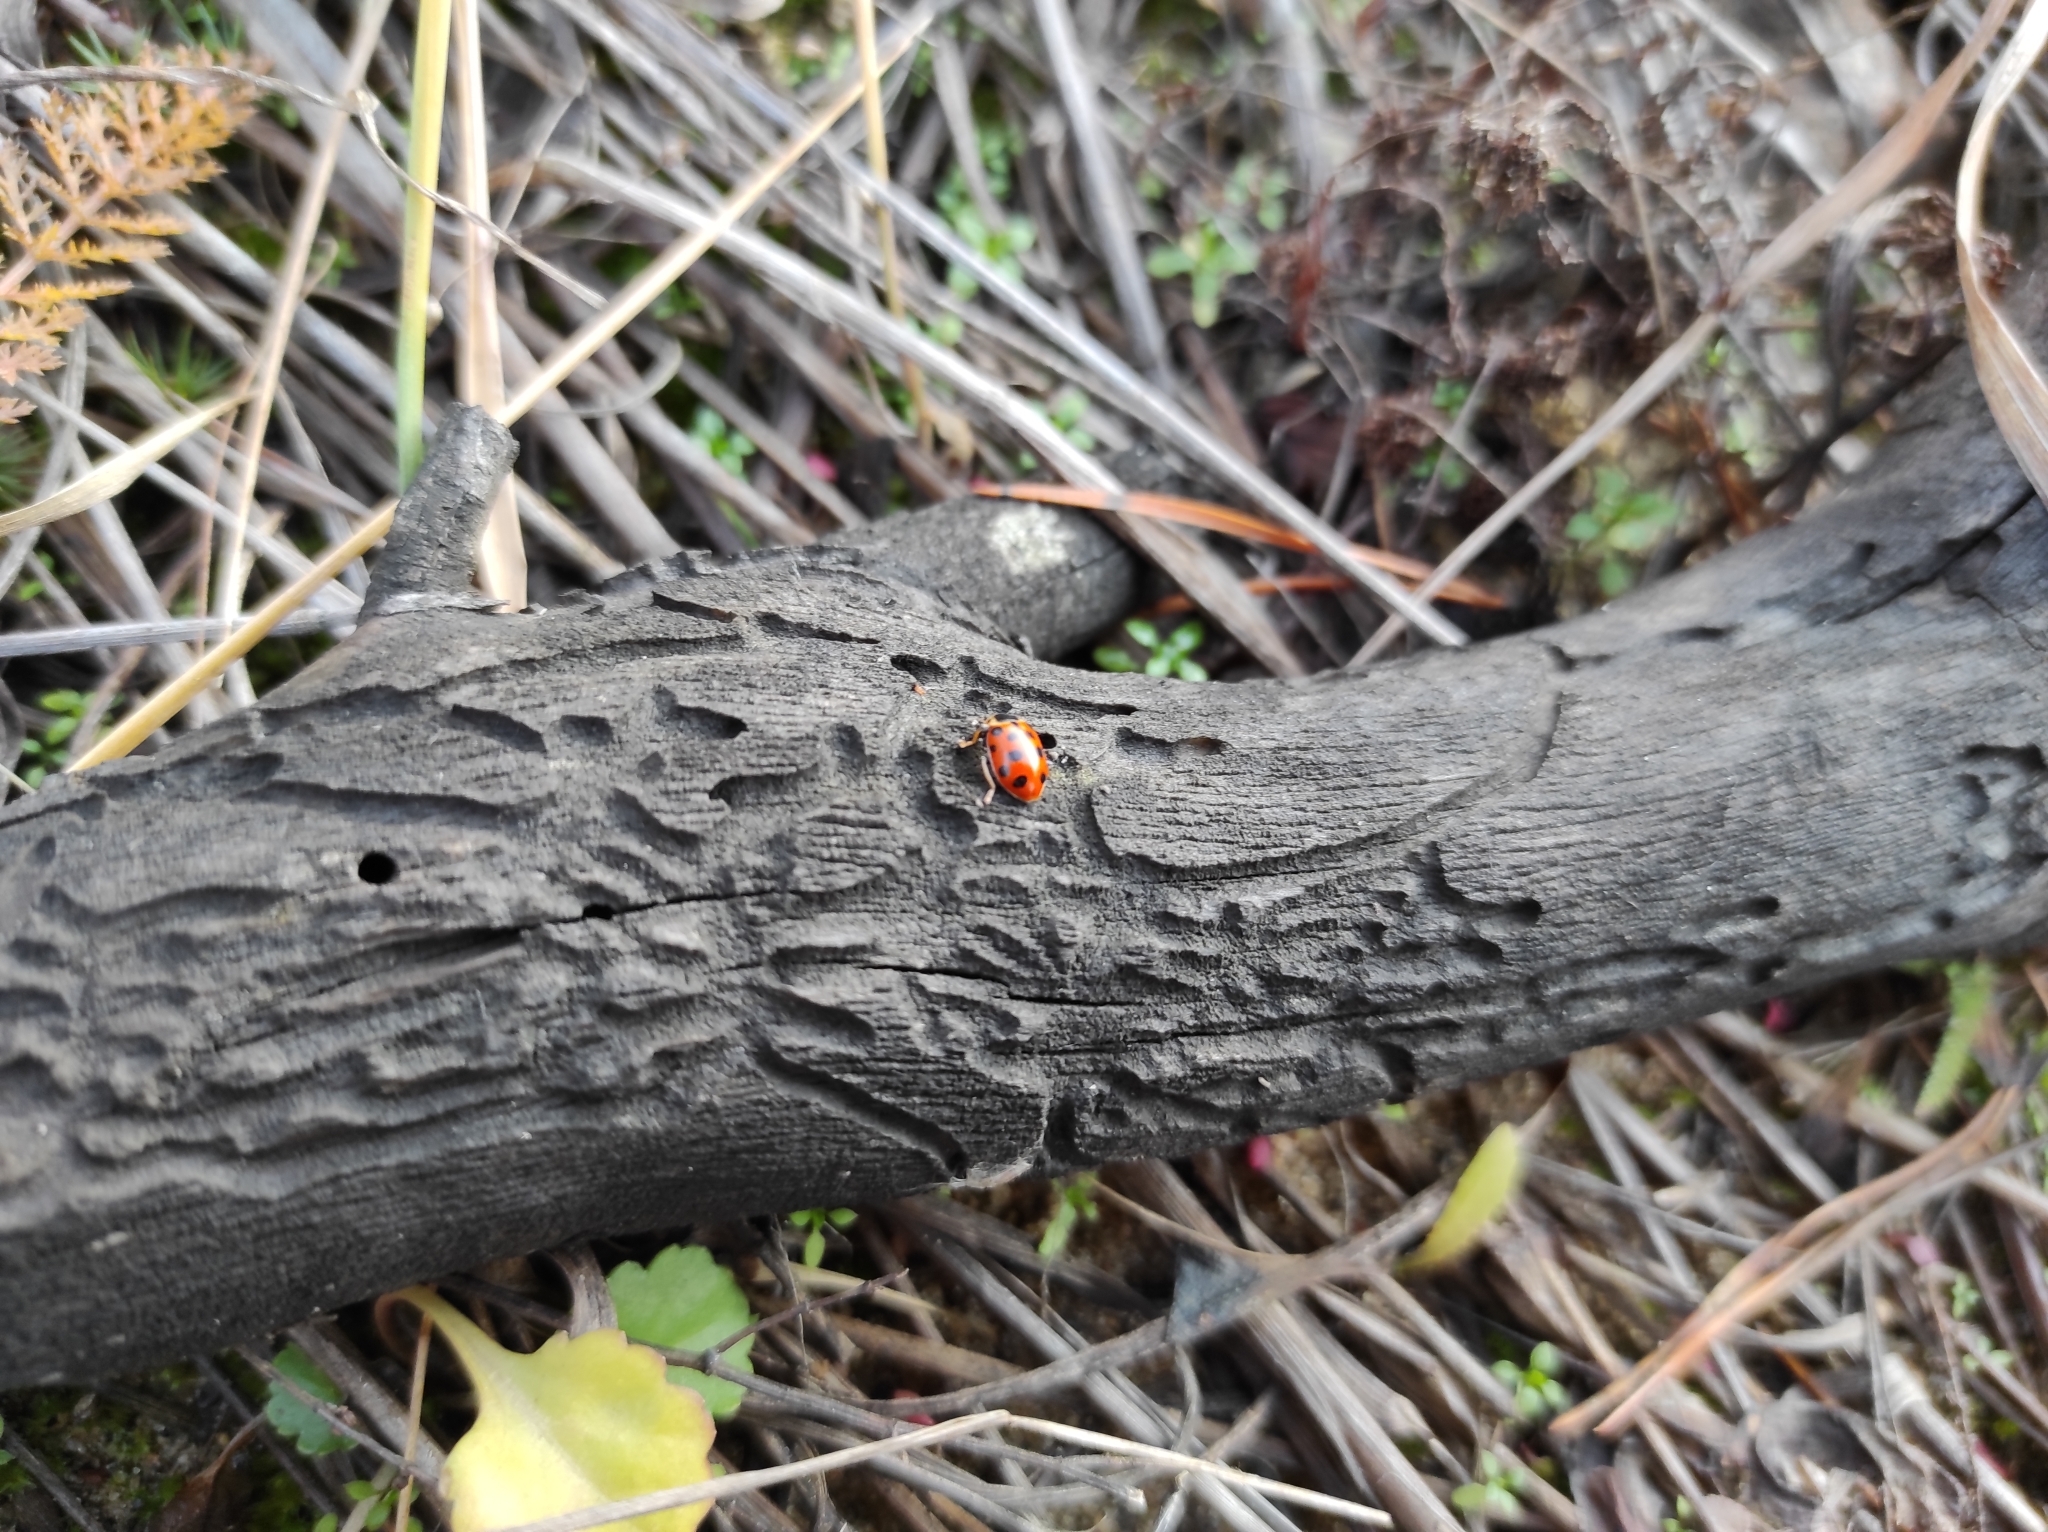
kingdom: Animalia
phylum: Arthropoda
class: Insecta
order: Coleoptera
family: Coccinellidae
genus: Hippodamia
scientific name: Hippodamia tredecimpunctata
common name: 13-spot ladybird
